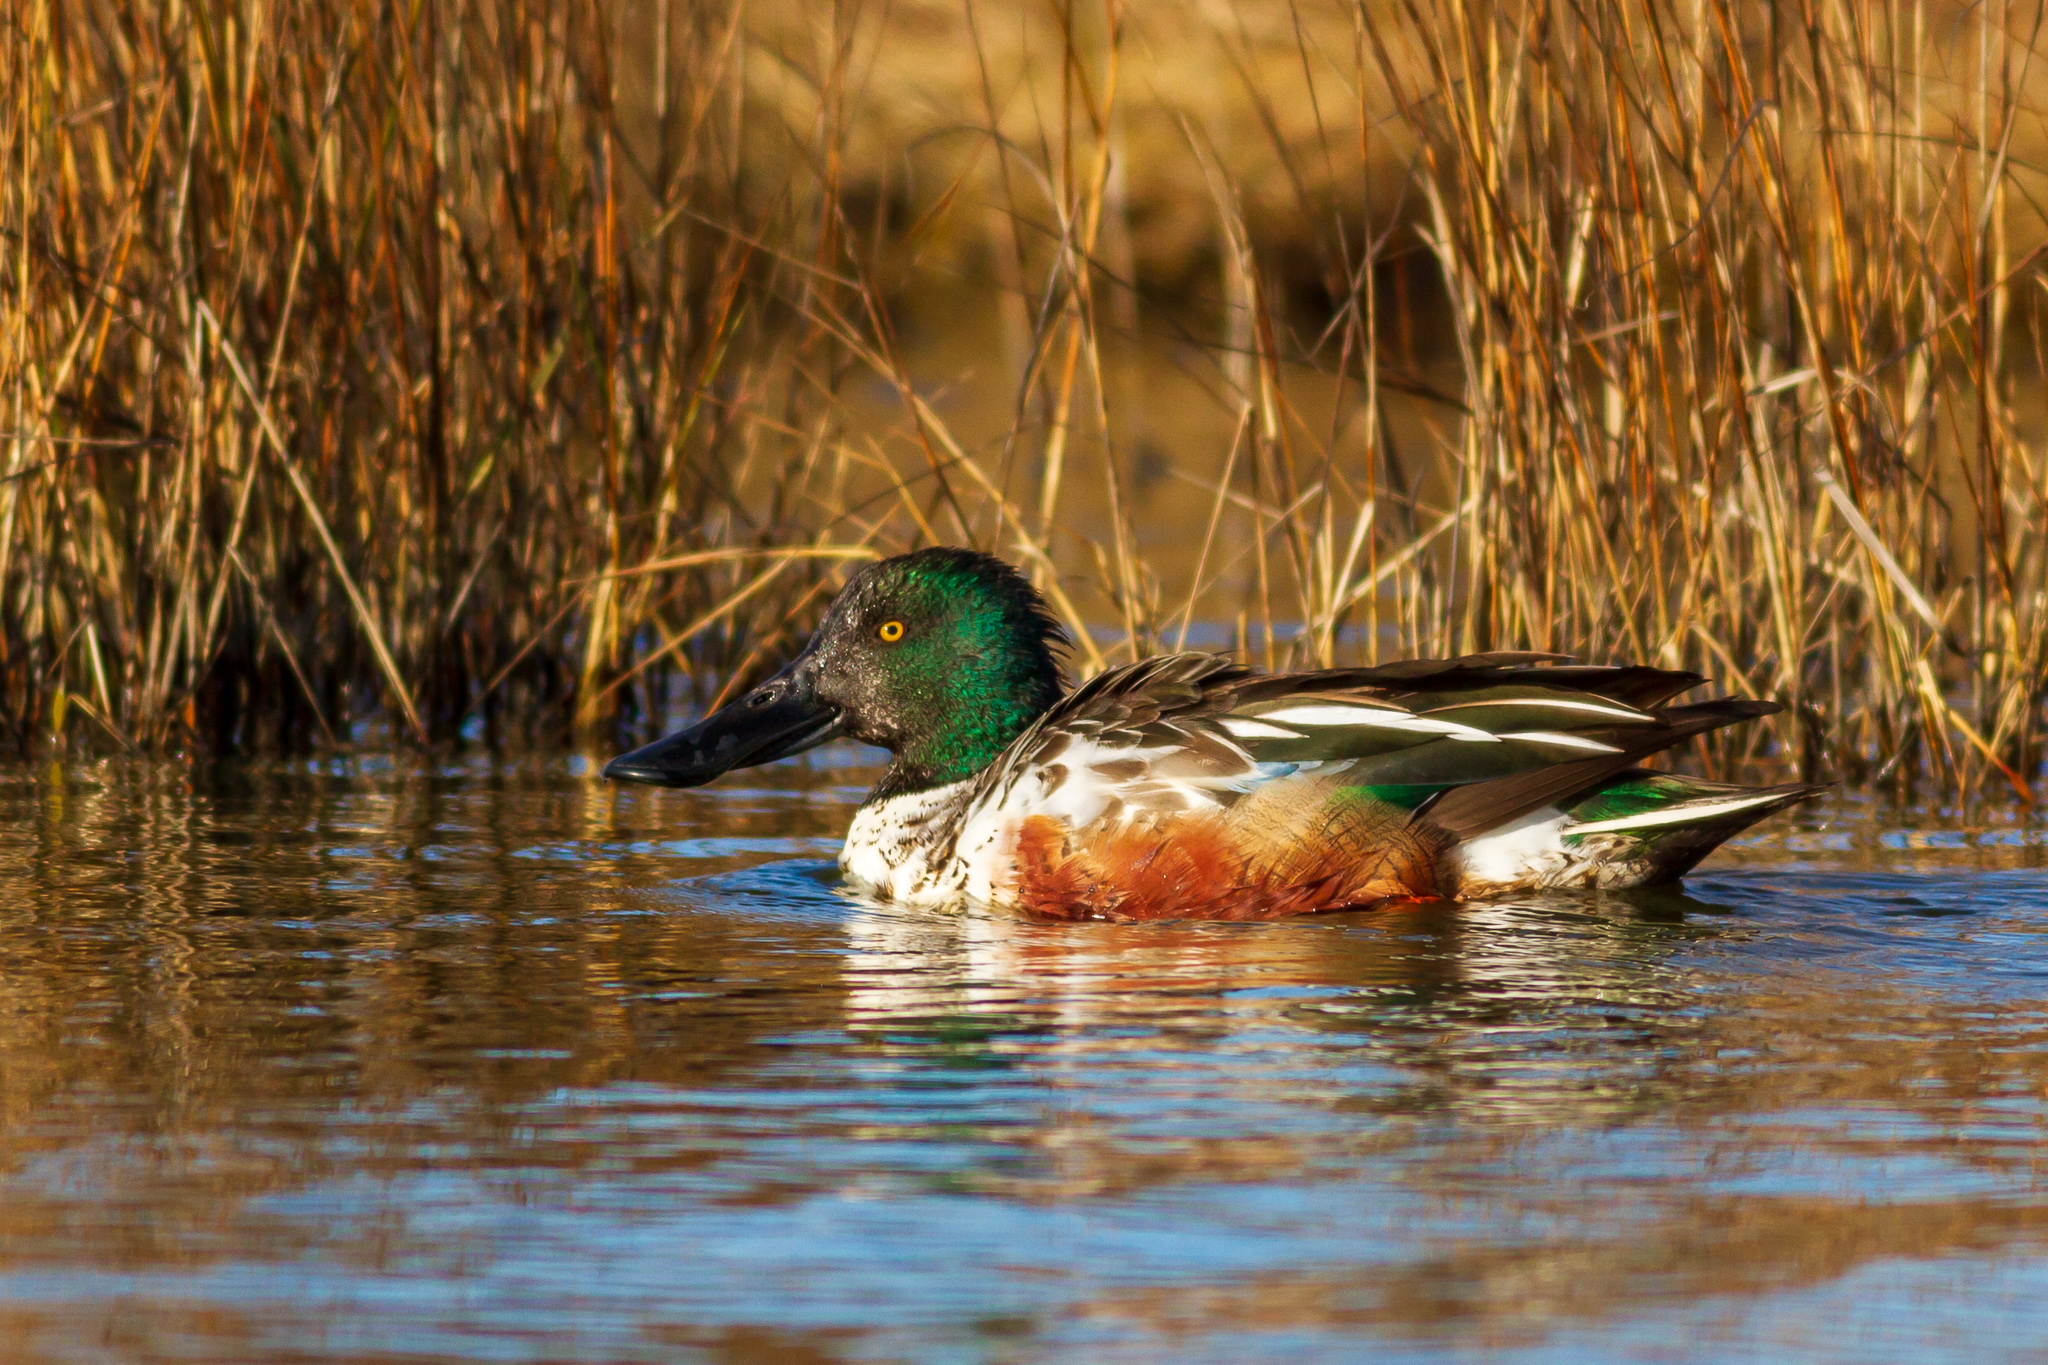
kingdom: Animalia
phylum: Chordata
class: Aves
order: Anseriformes
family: Anatidae
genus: Spatula
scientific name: Spatula clypeata
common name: Northern shoveler
